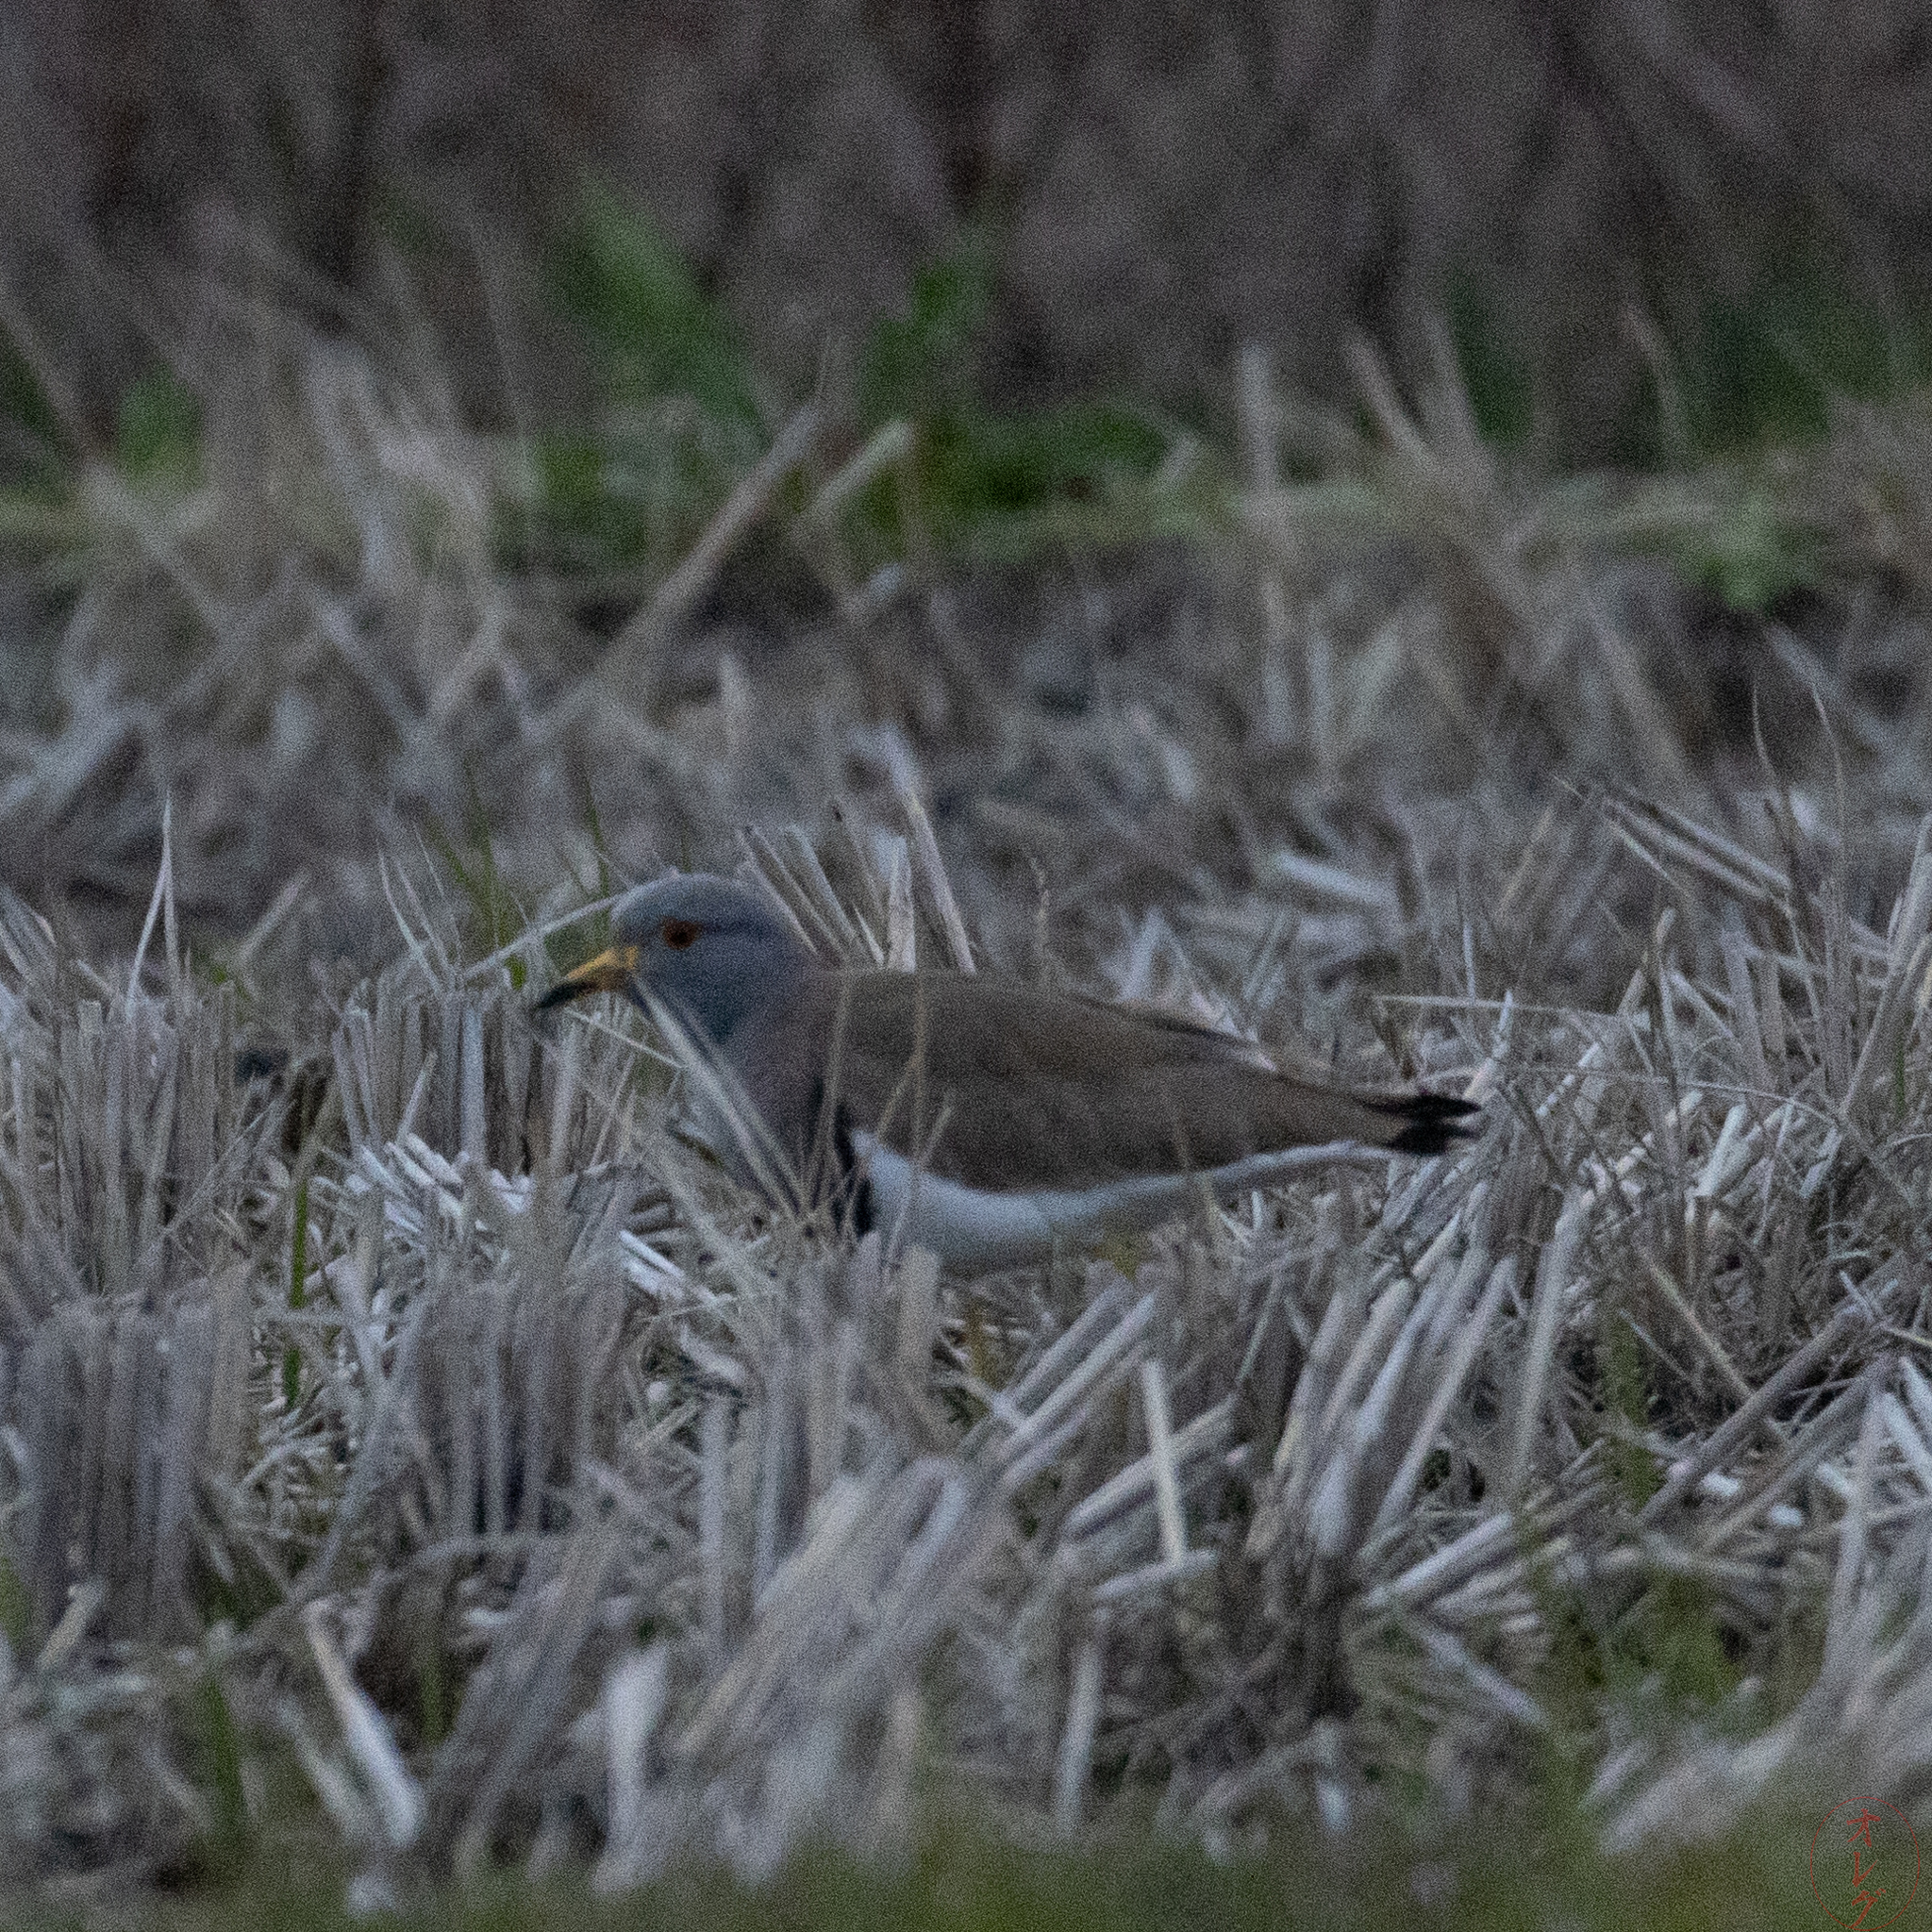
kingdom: Animalia
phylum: Chordata
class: Aves
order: Charadriiformes
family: Charadriidae
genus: Vanellus
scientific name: Vanellus cinereus
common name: Grey-headed lapwing
